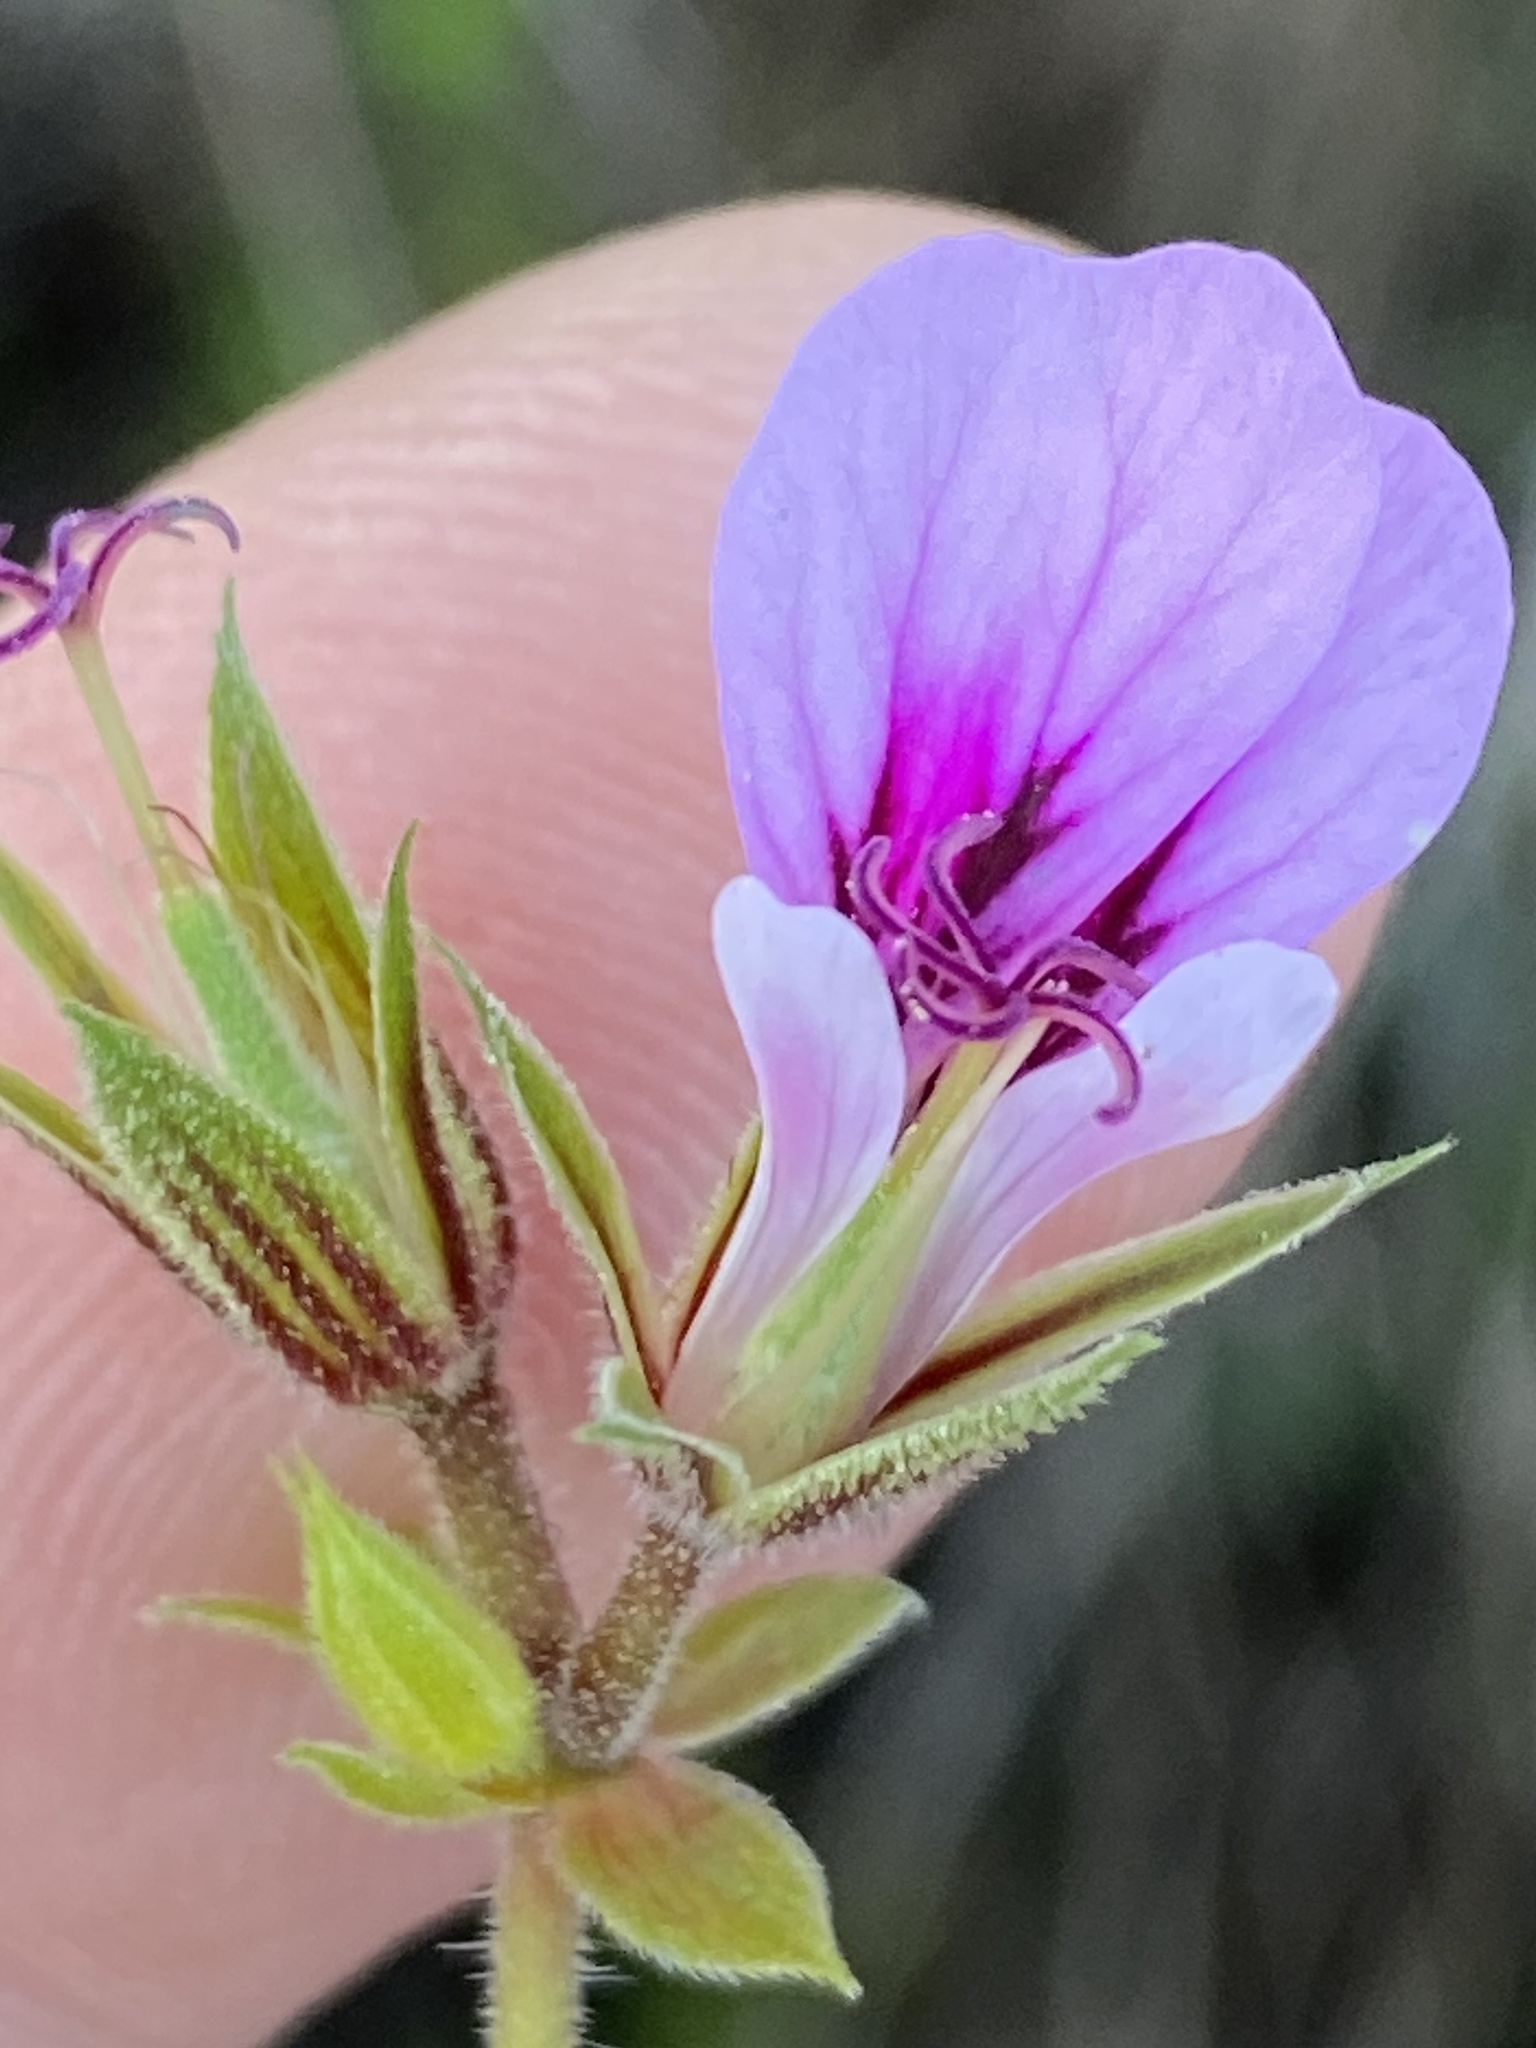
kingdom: Plantae
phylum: Tracheophyta
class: Magnoliopsida
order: Geraniales
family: Geraniaceae
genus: Pelargonium
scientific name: Pelargonium candicans
